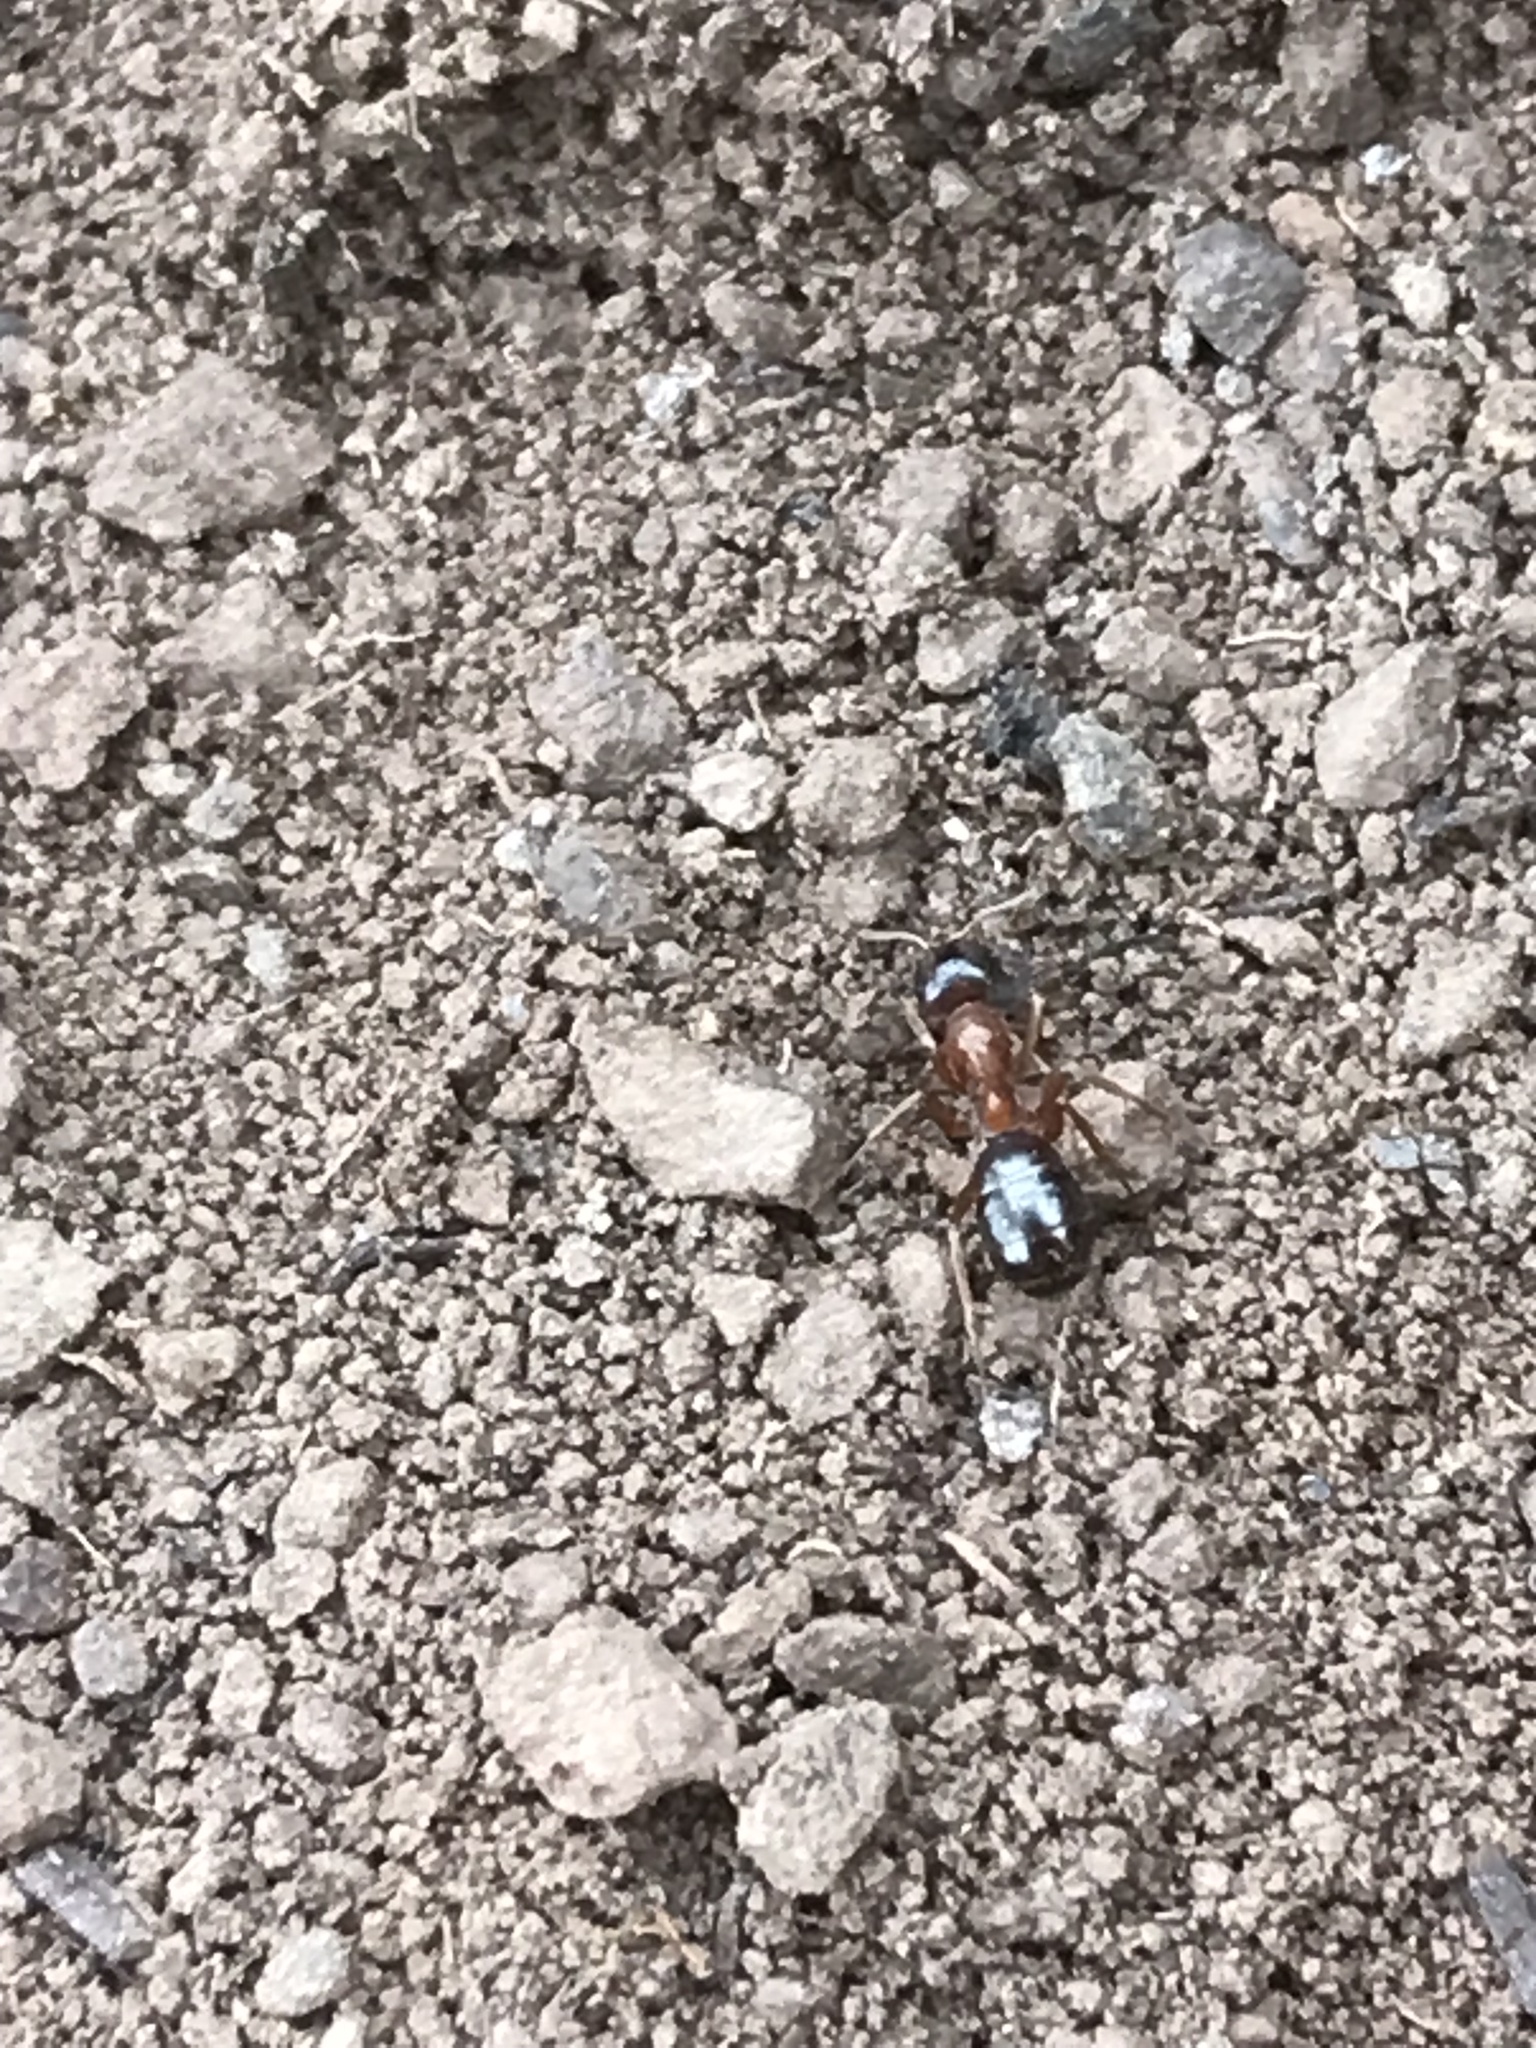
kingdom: Animalia
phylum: Arthropoda
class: Insecta
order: Hymenoptera
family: Formicidae
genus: Formica
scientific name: Formica subpolita
